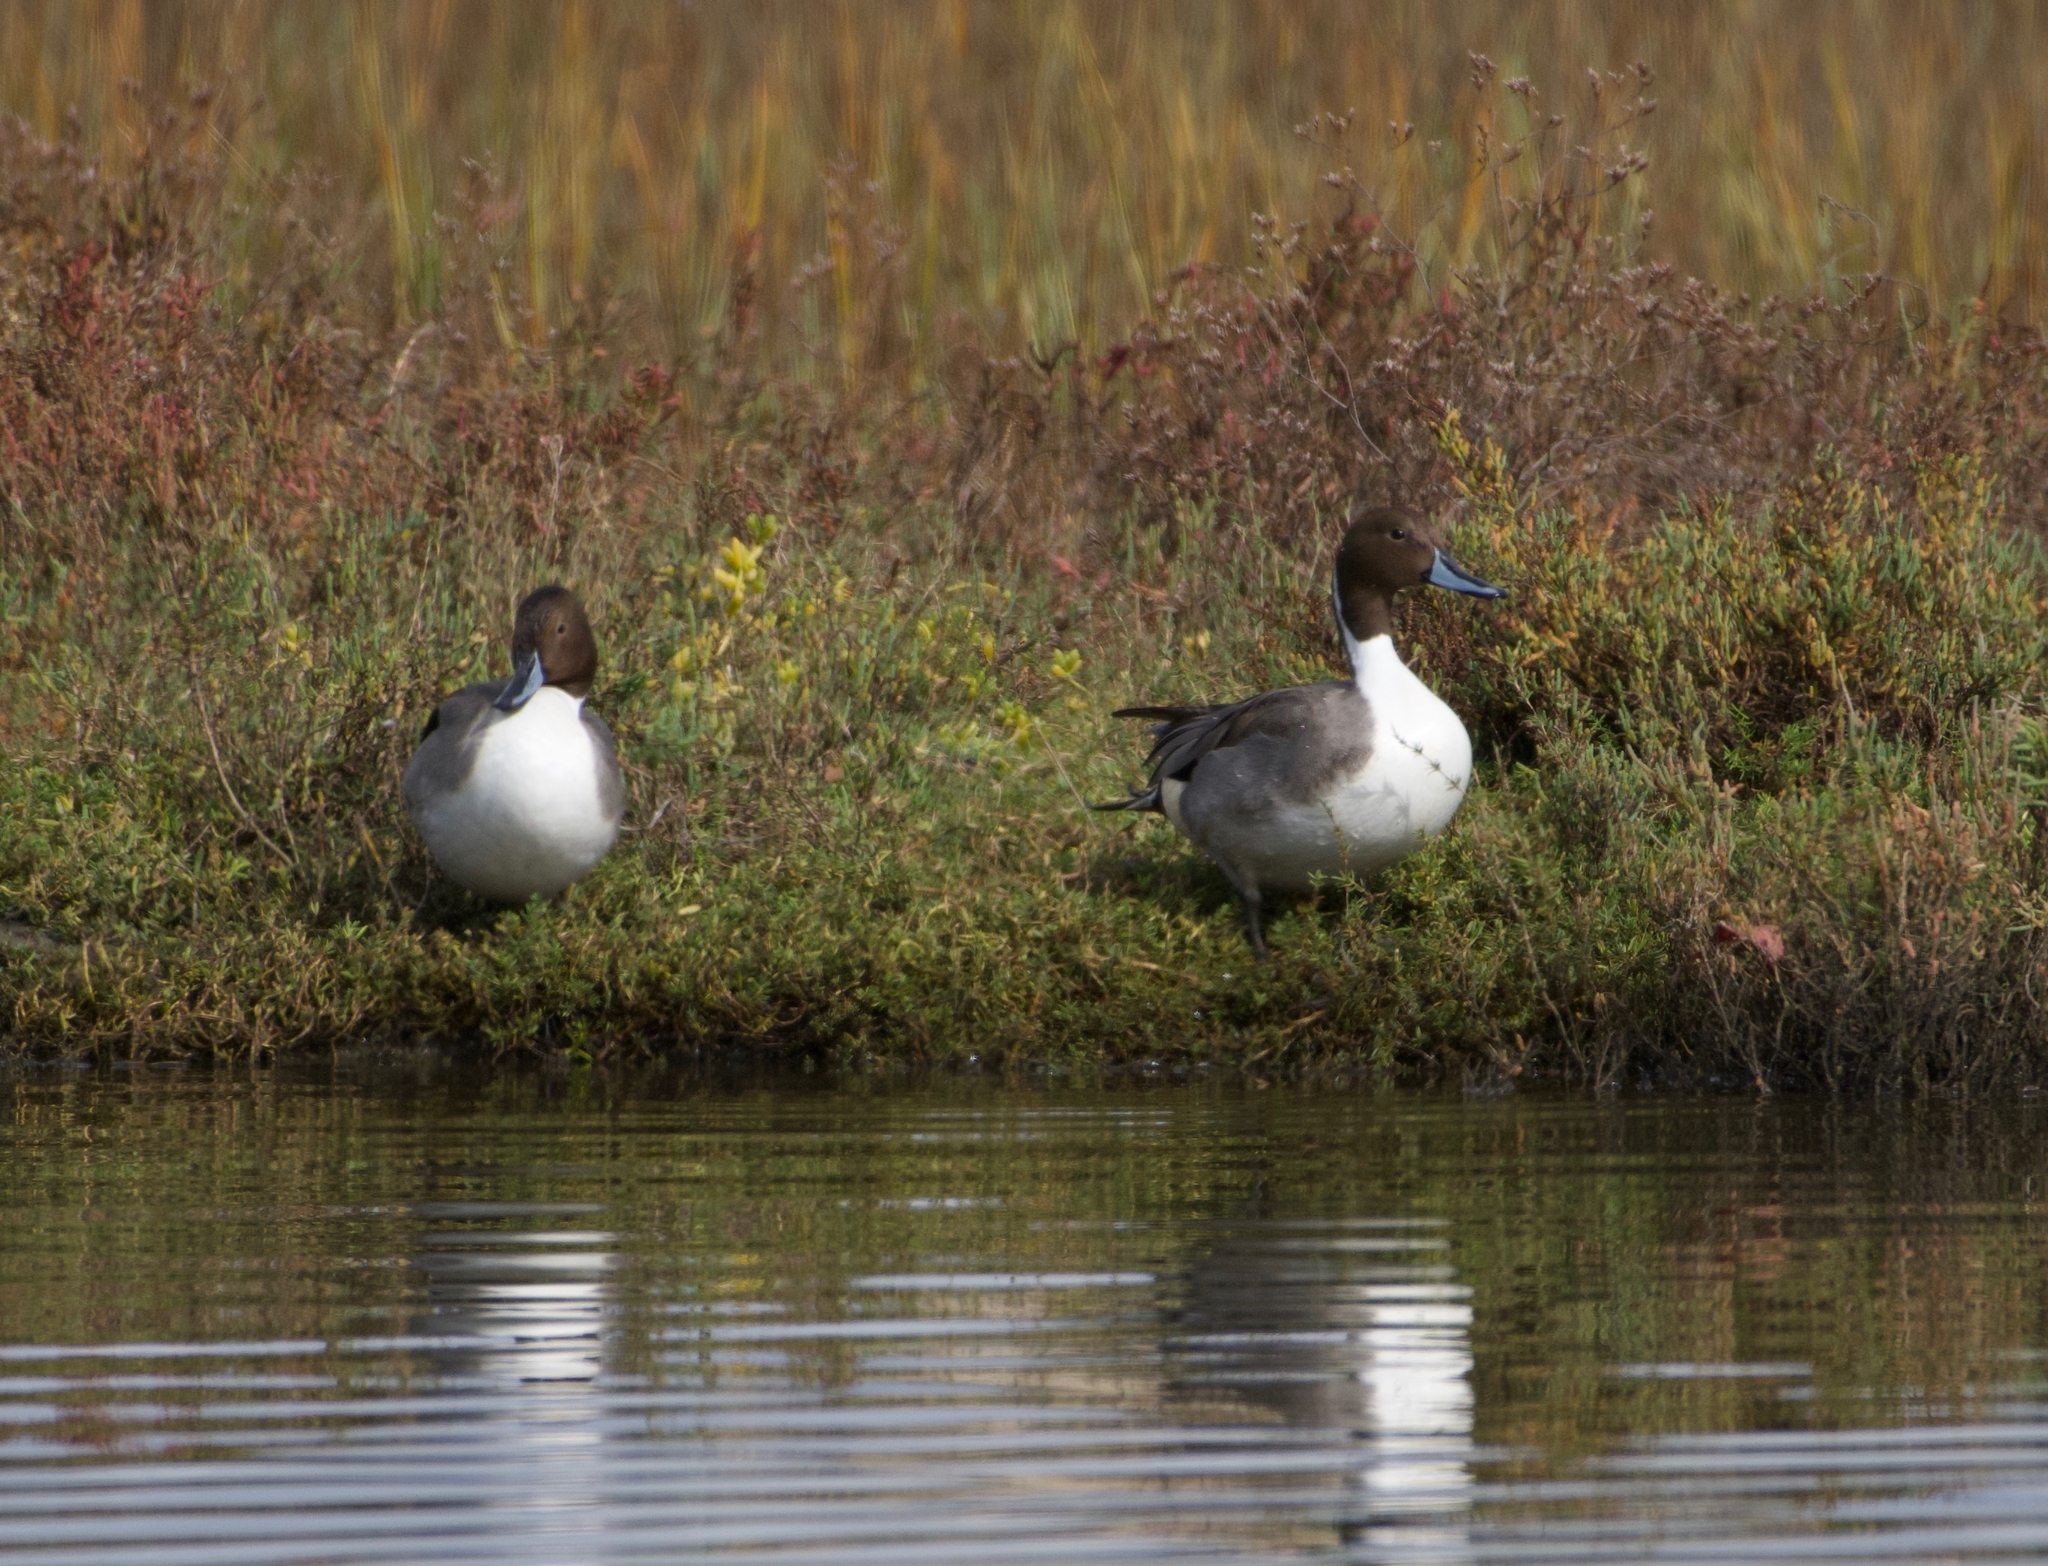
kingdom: Animalia
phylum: Chordata
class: Aves
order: Anseriformes
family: Anatidae
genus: Anas
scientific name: Anas acuta
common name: Northern pintail
